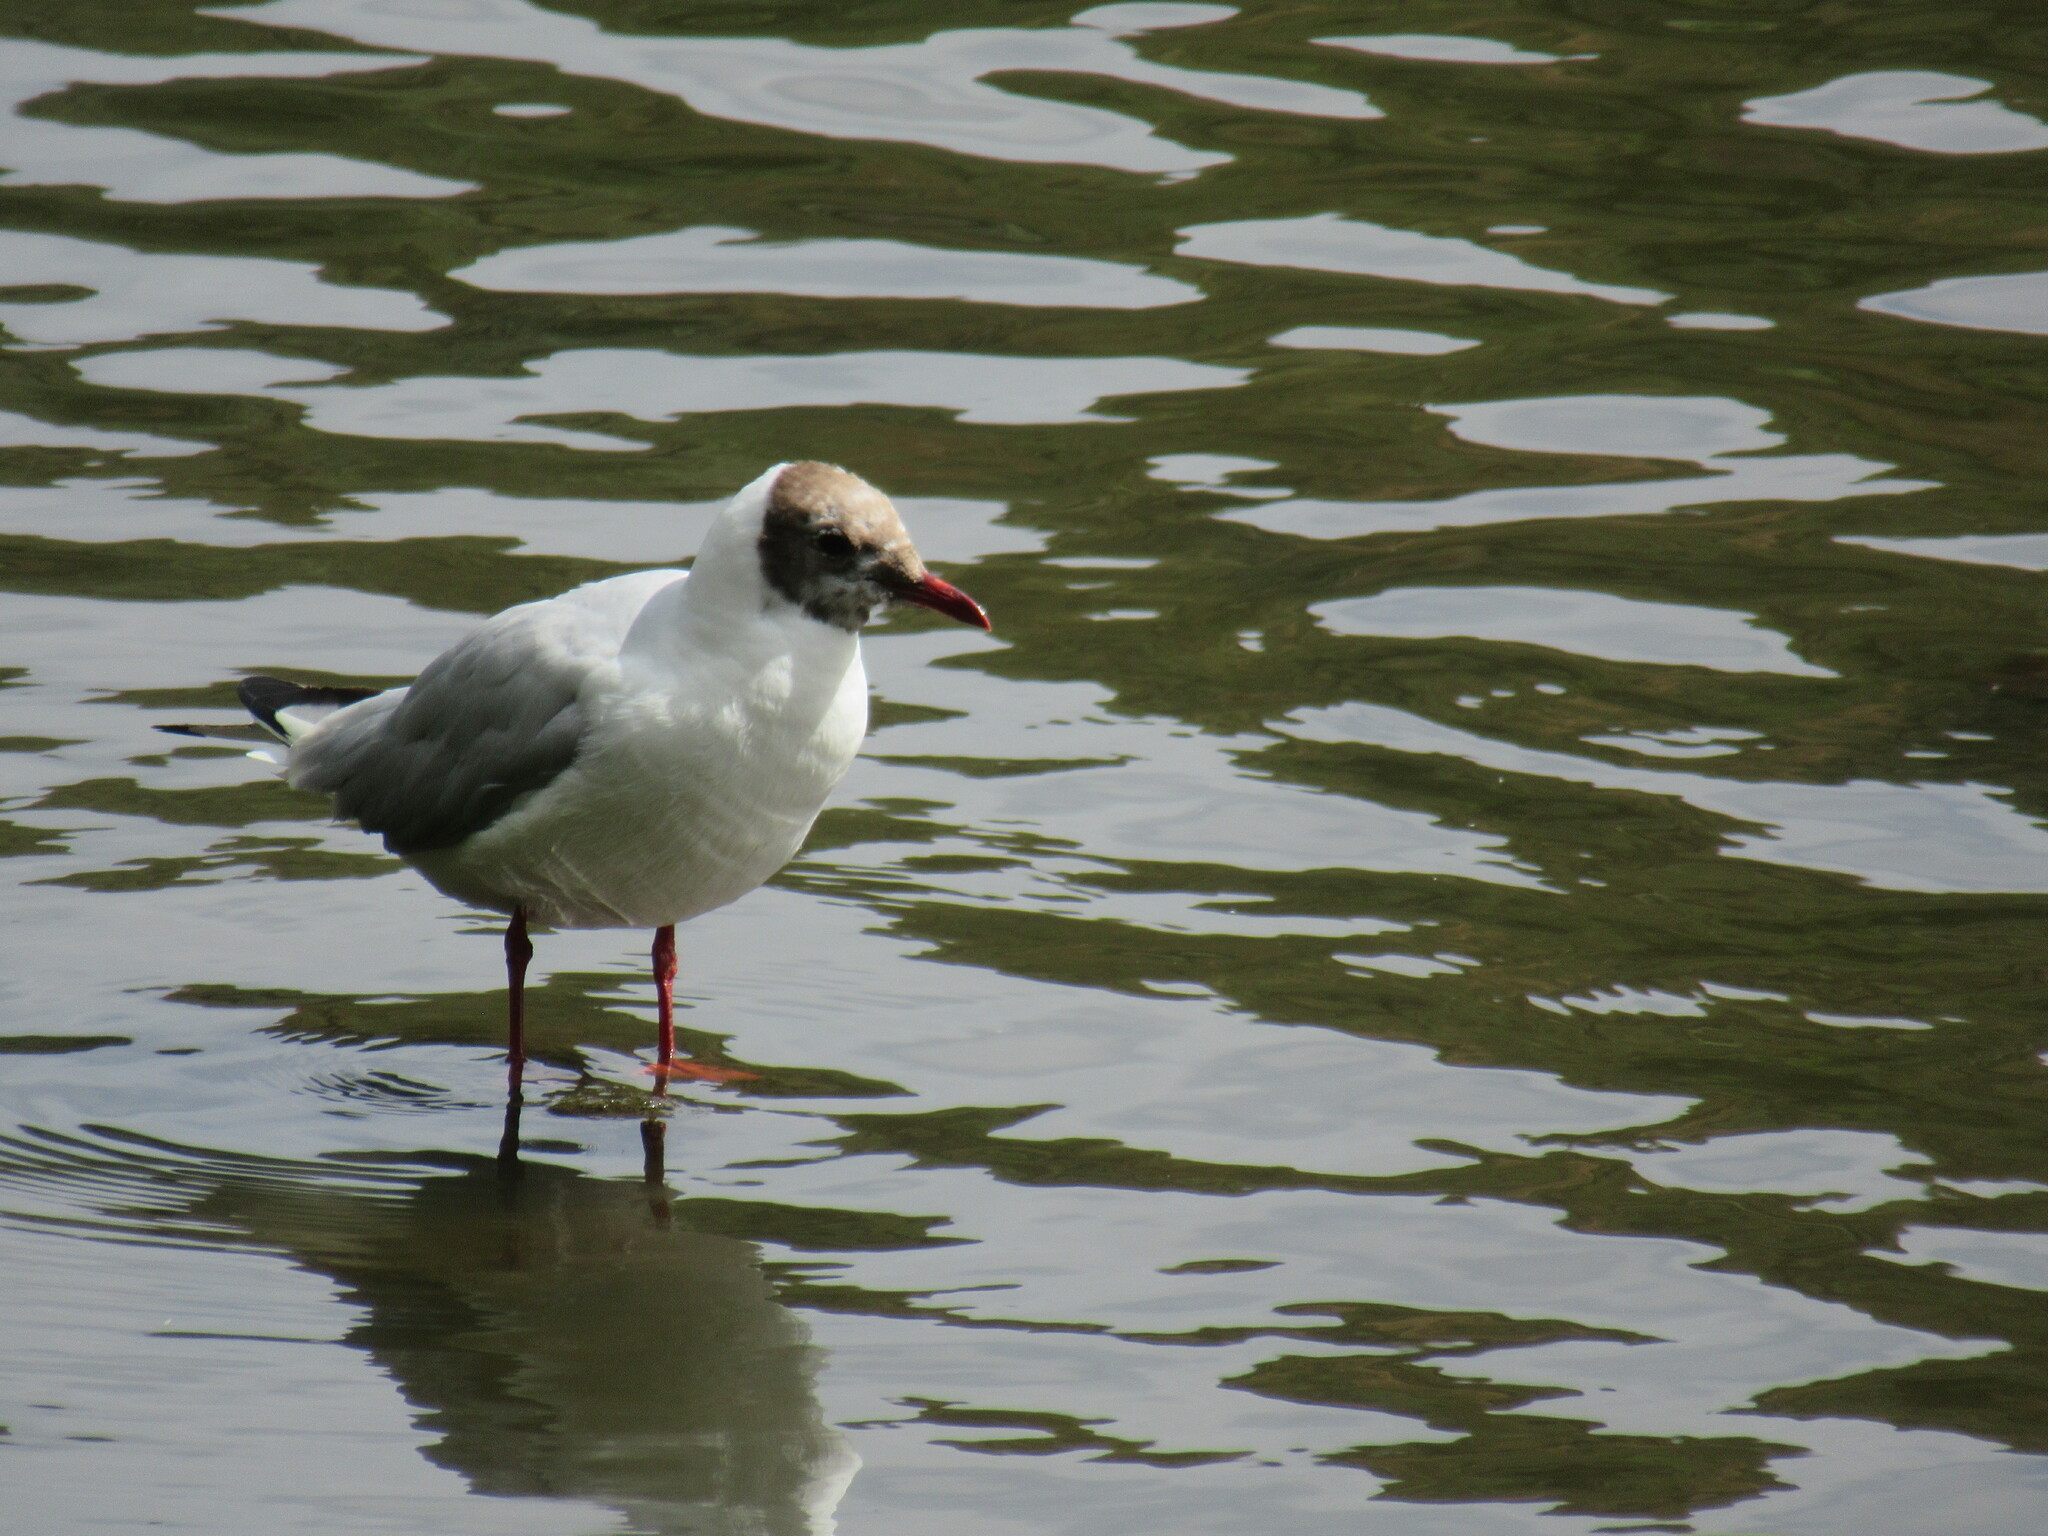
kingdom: Animalia
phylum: Chordata
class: Aves
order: Charadriiformes
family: Laridae
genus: Chroicocephalus
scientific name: Chroicocephalus ridibundus
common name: Black-headed gull
